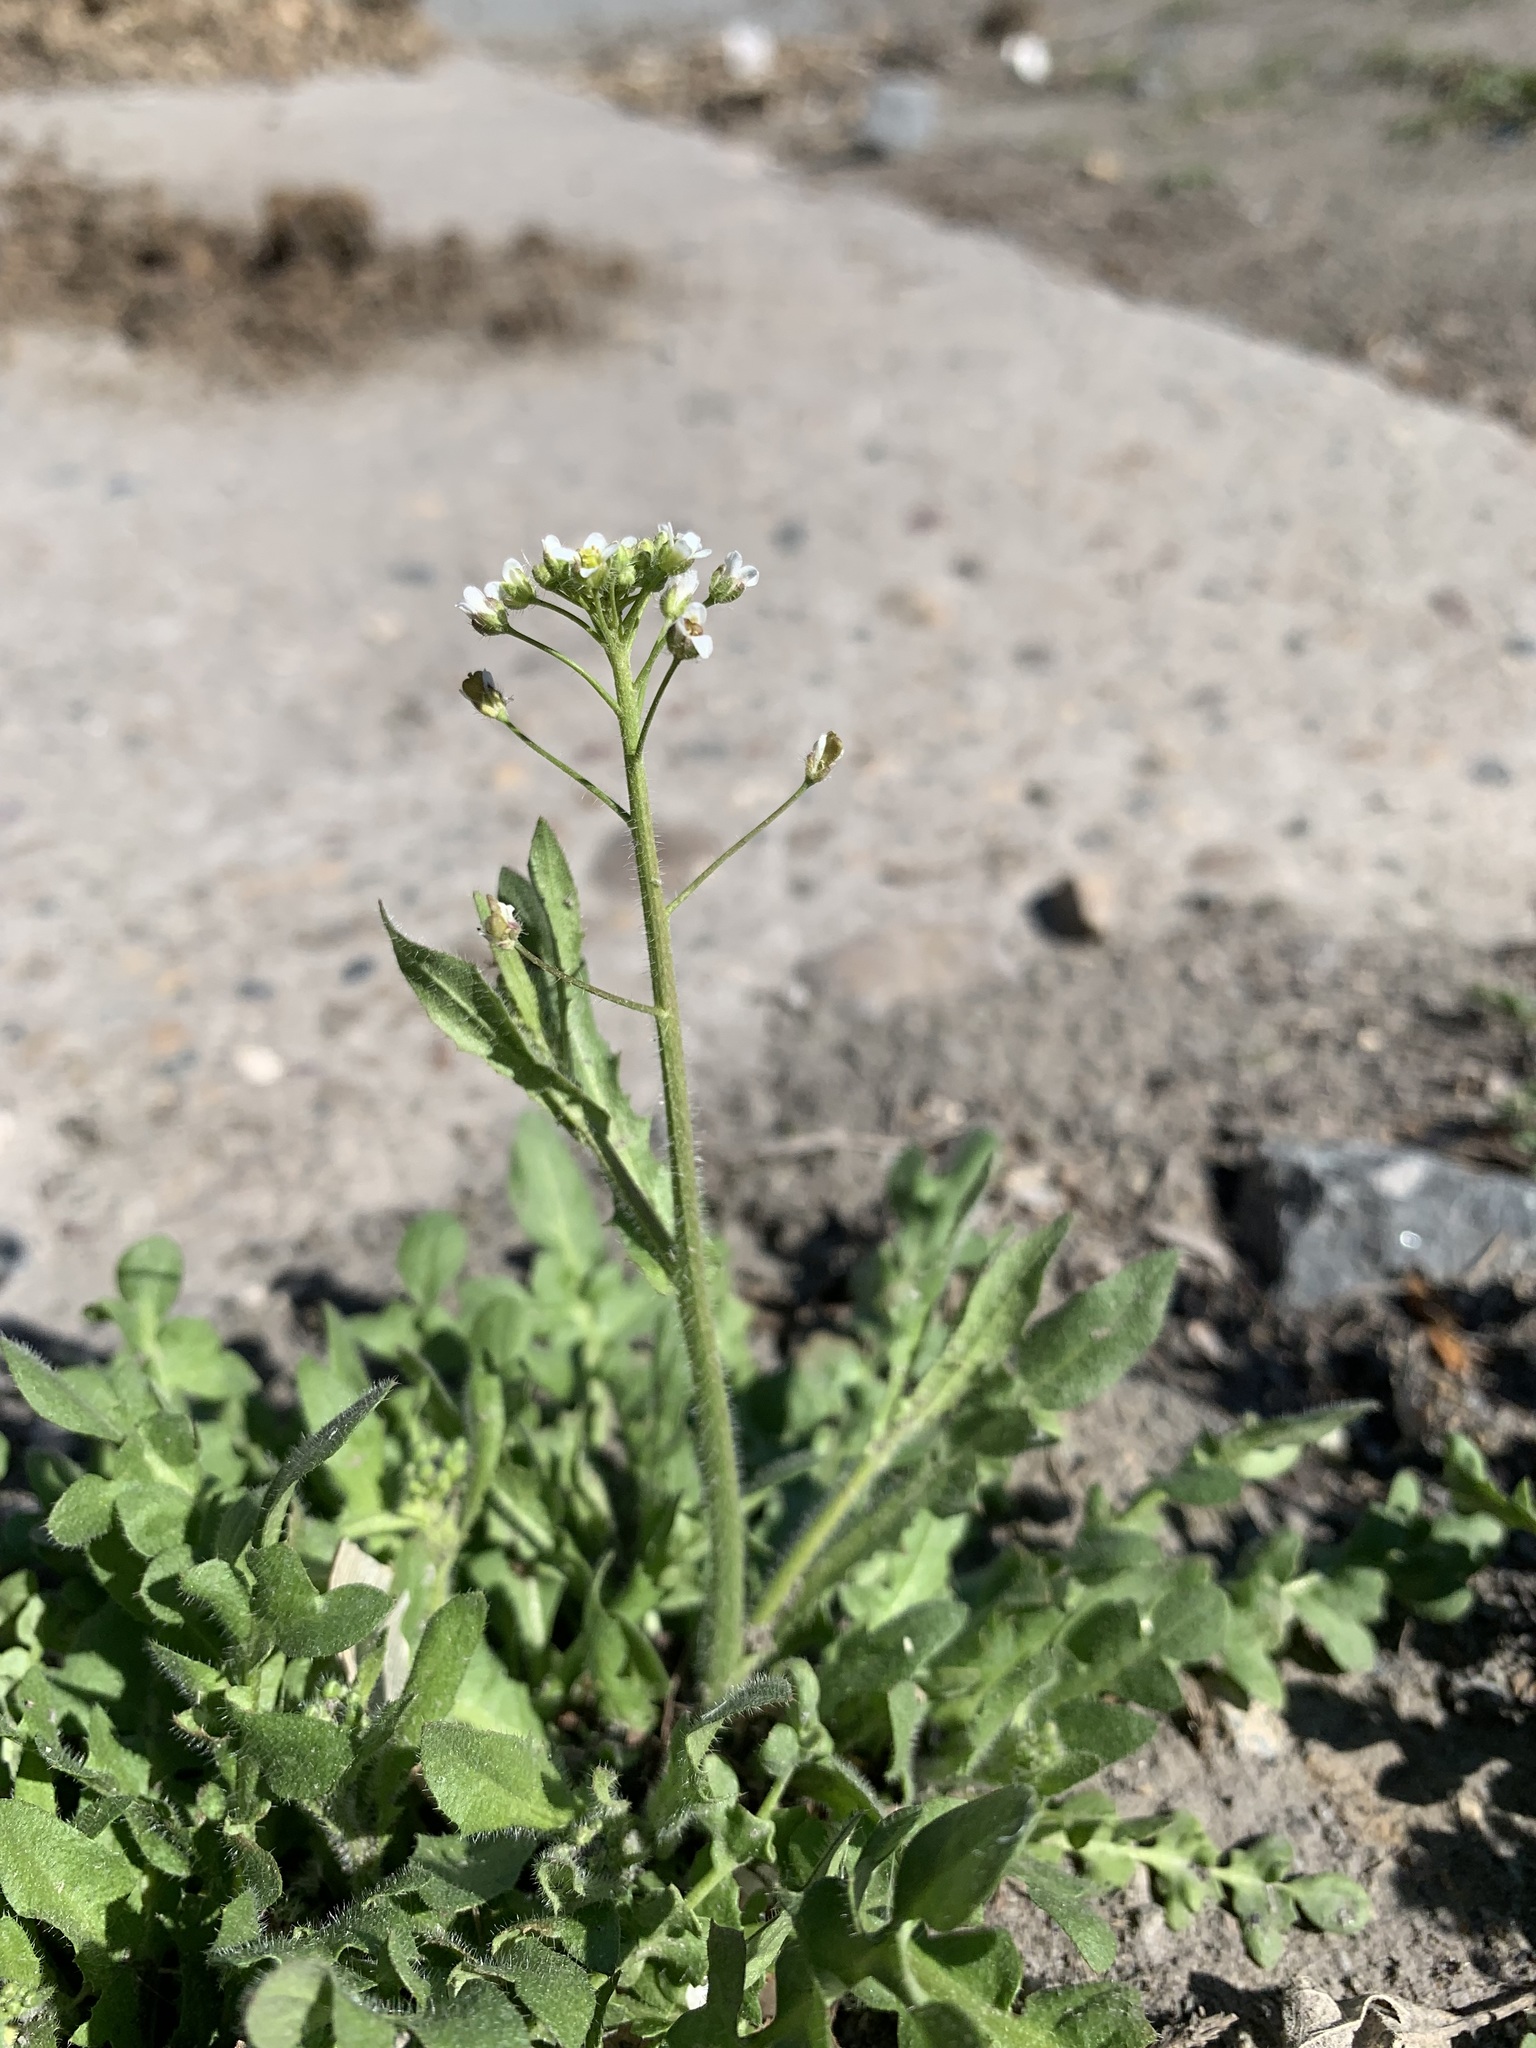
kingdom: Plantae
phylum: Tracheophyta
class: Magnoliopsida
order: Brassicales
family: Brassicaceae
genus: Capsella
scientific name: Capsella bursa-pastoris
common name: Shepherd's purse
